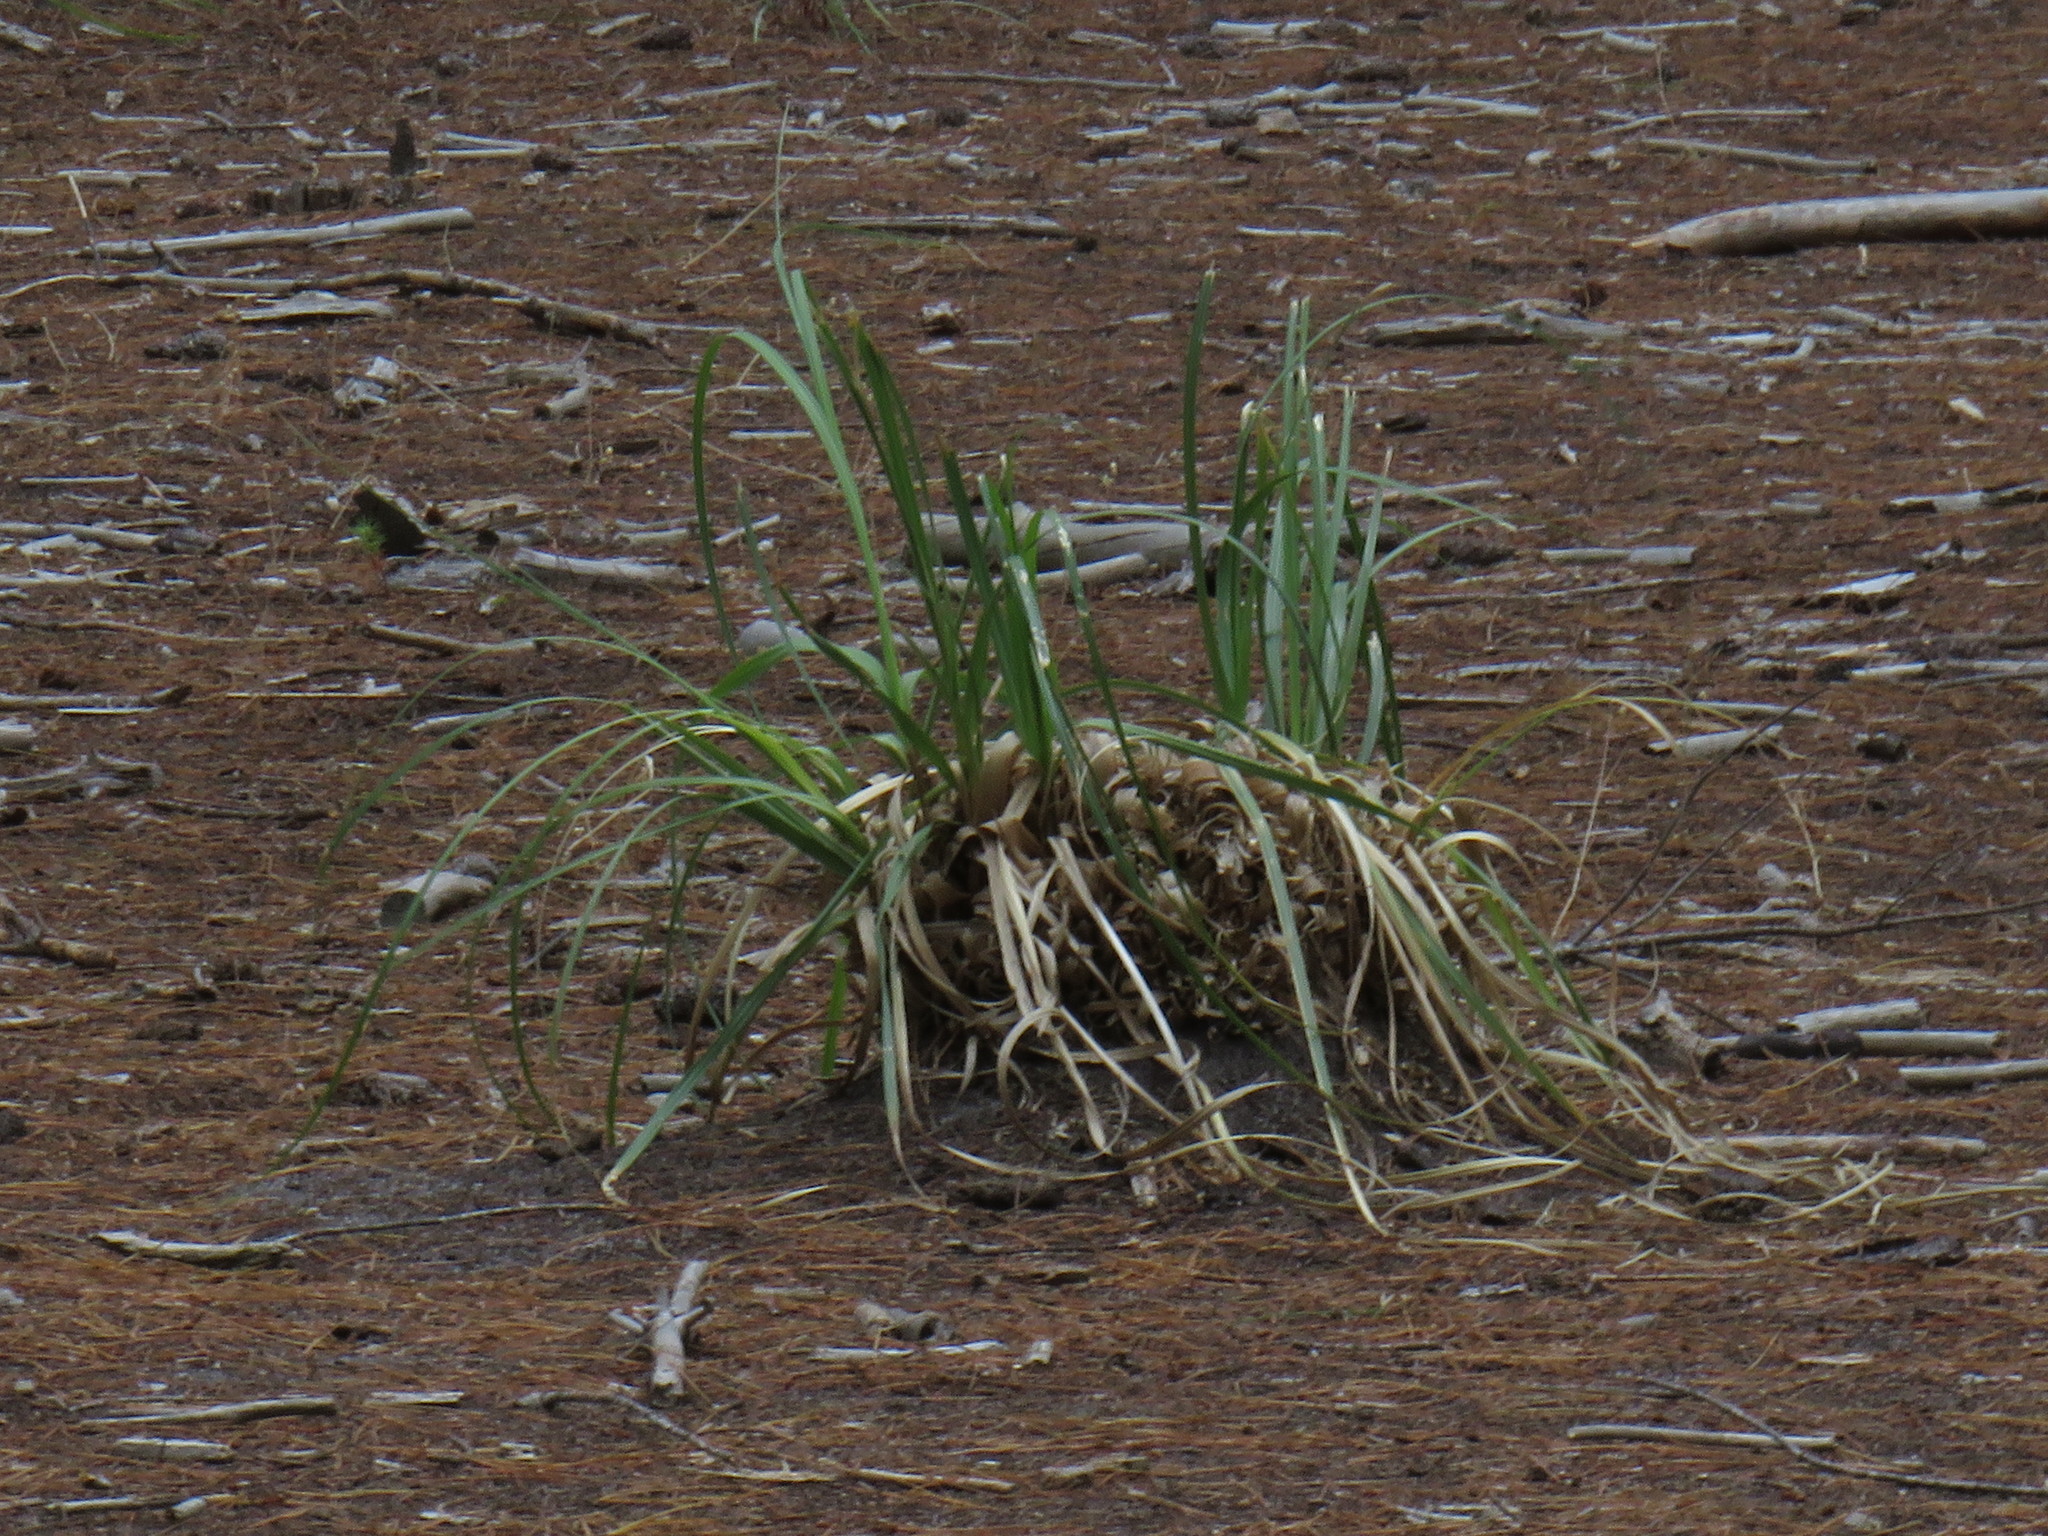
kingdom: Plantae
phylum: Tracheophyta
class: Liliopsida
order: Poales
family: Poaceae
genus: Cortaderia
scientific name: Cortaderia selloana
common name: Uruguayan pampas grass
